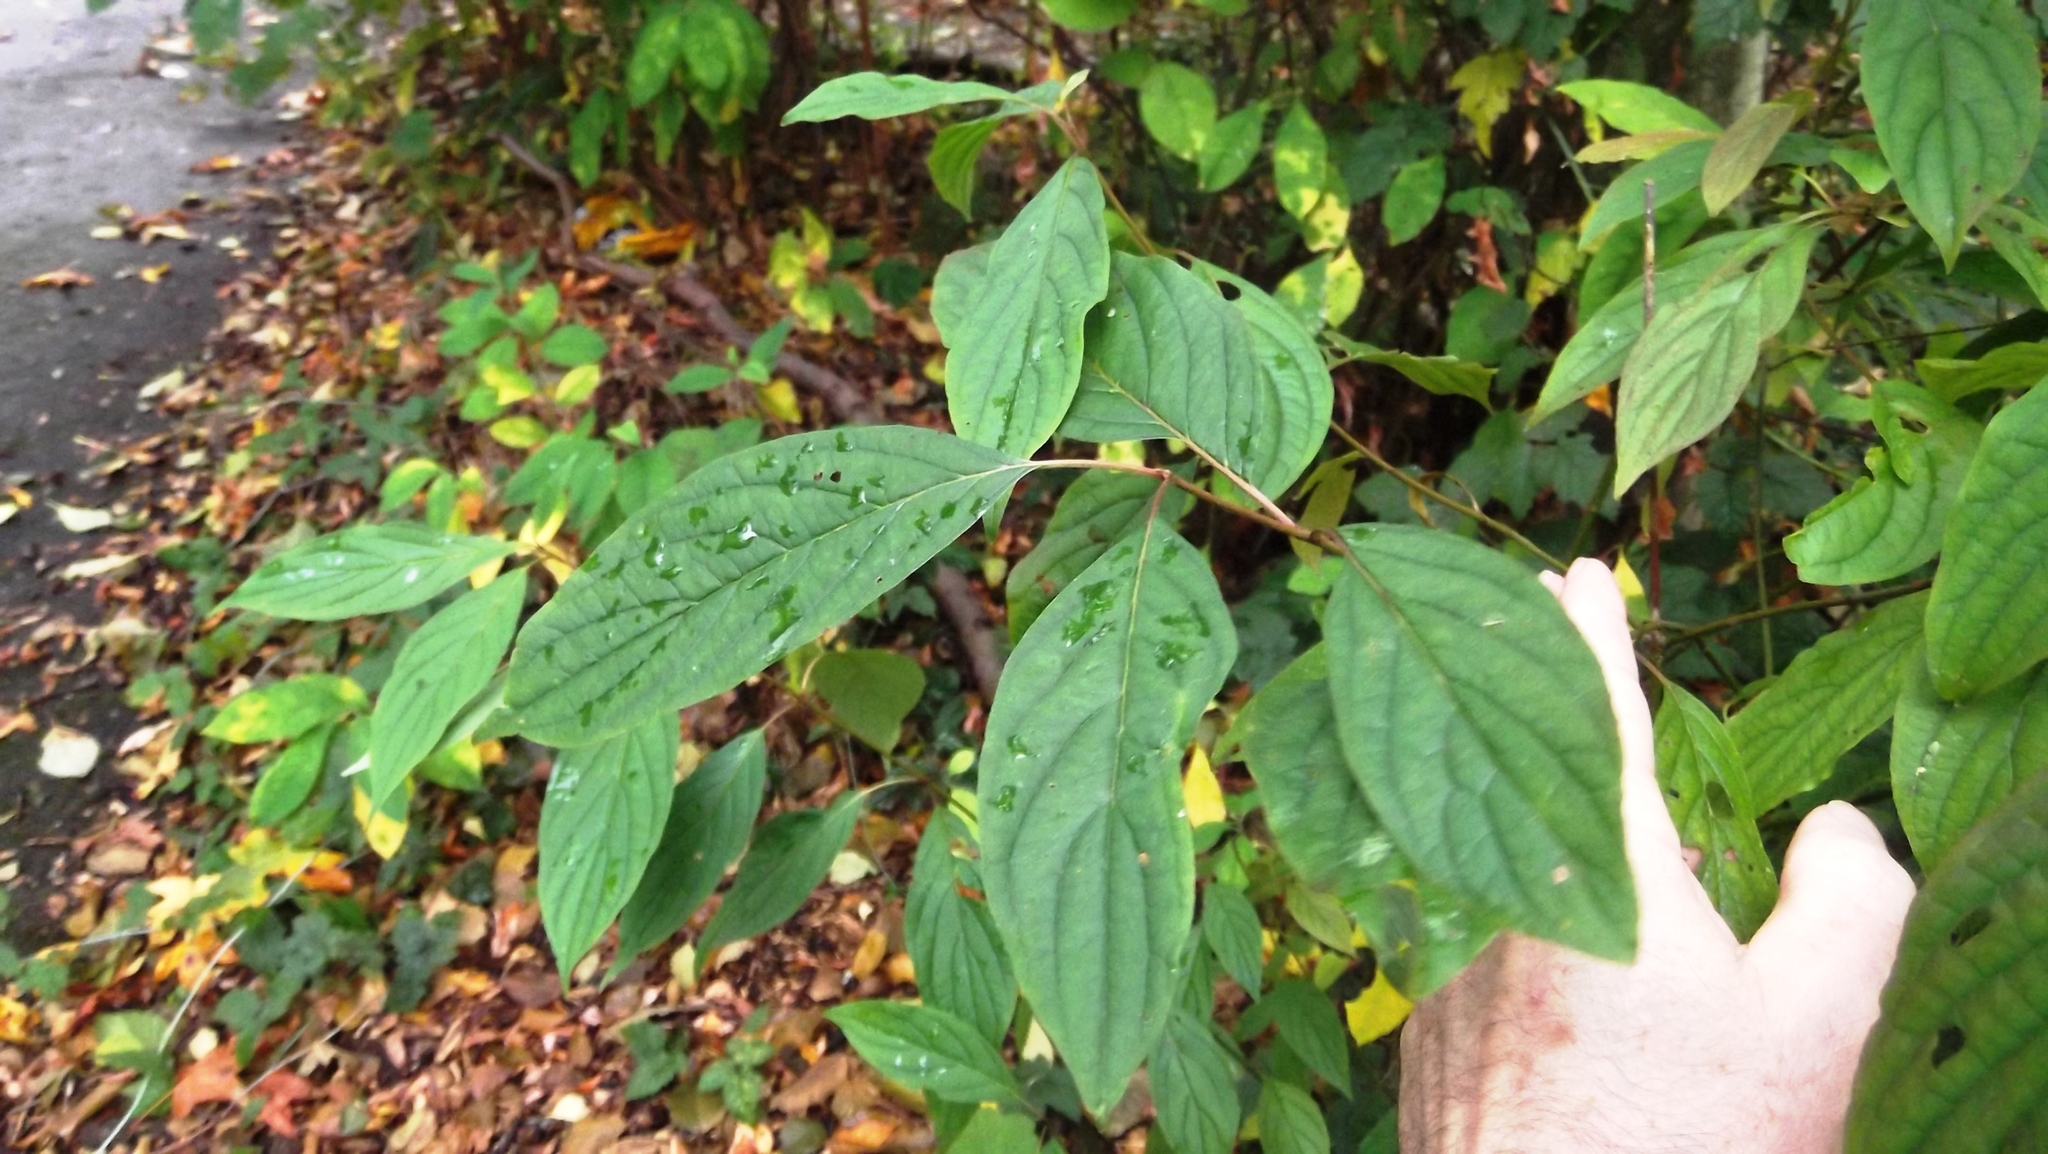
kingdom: Plantae
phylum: Tracheophyta
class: Magnoliopsida
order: Cornales
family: Cornaceae
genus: Cornus
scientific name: Cornus sericea
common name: Red-osier dogwood
